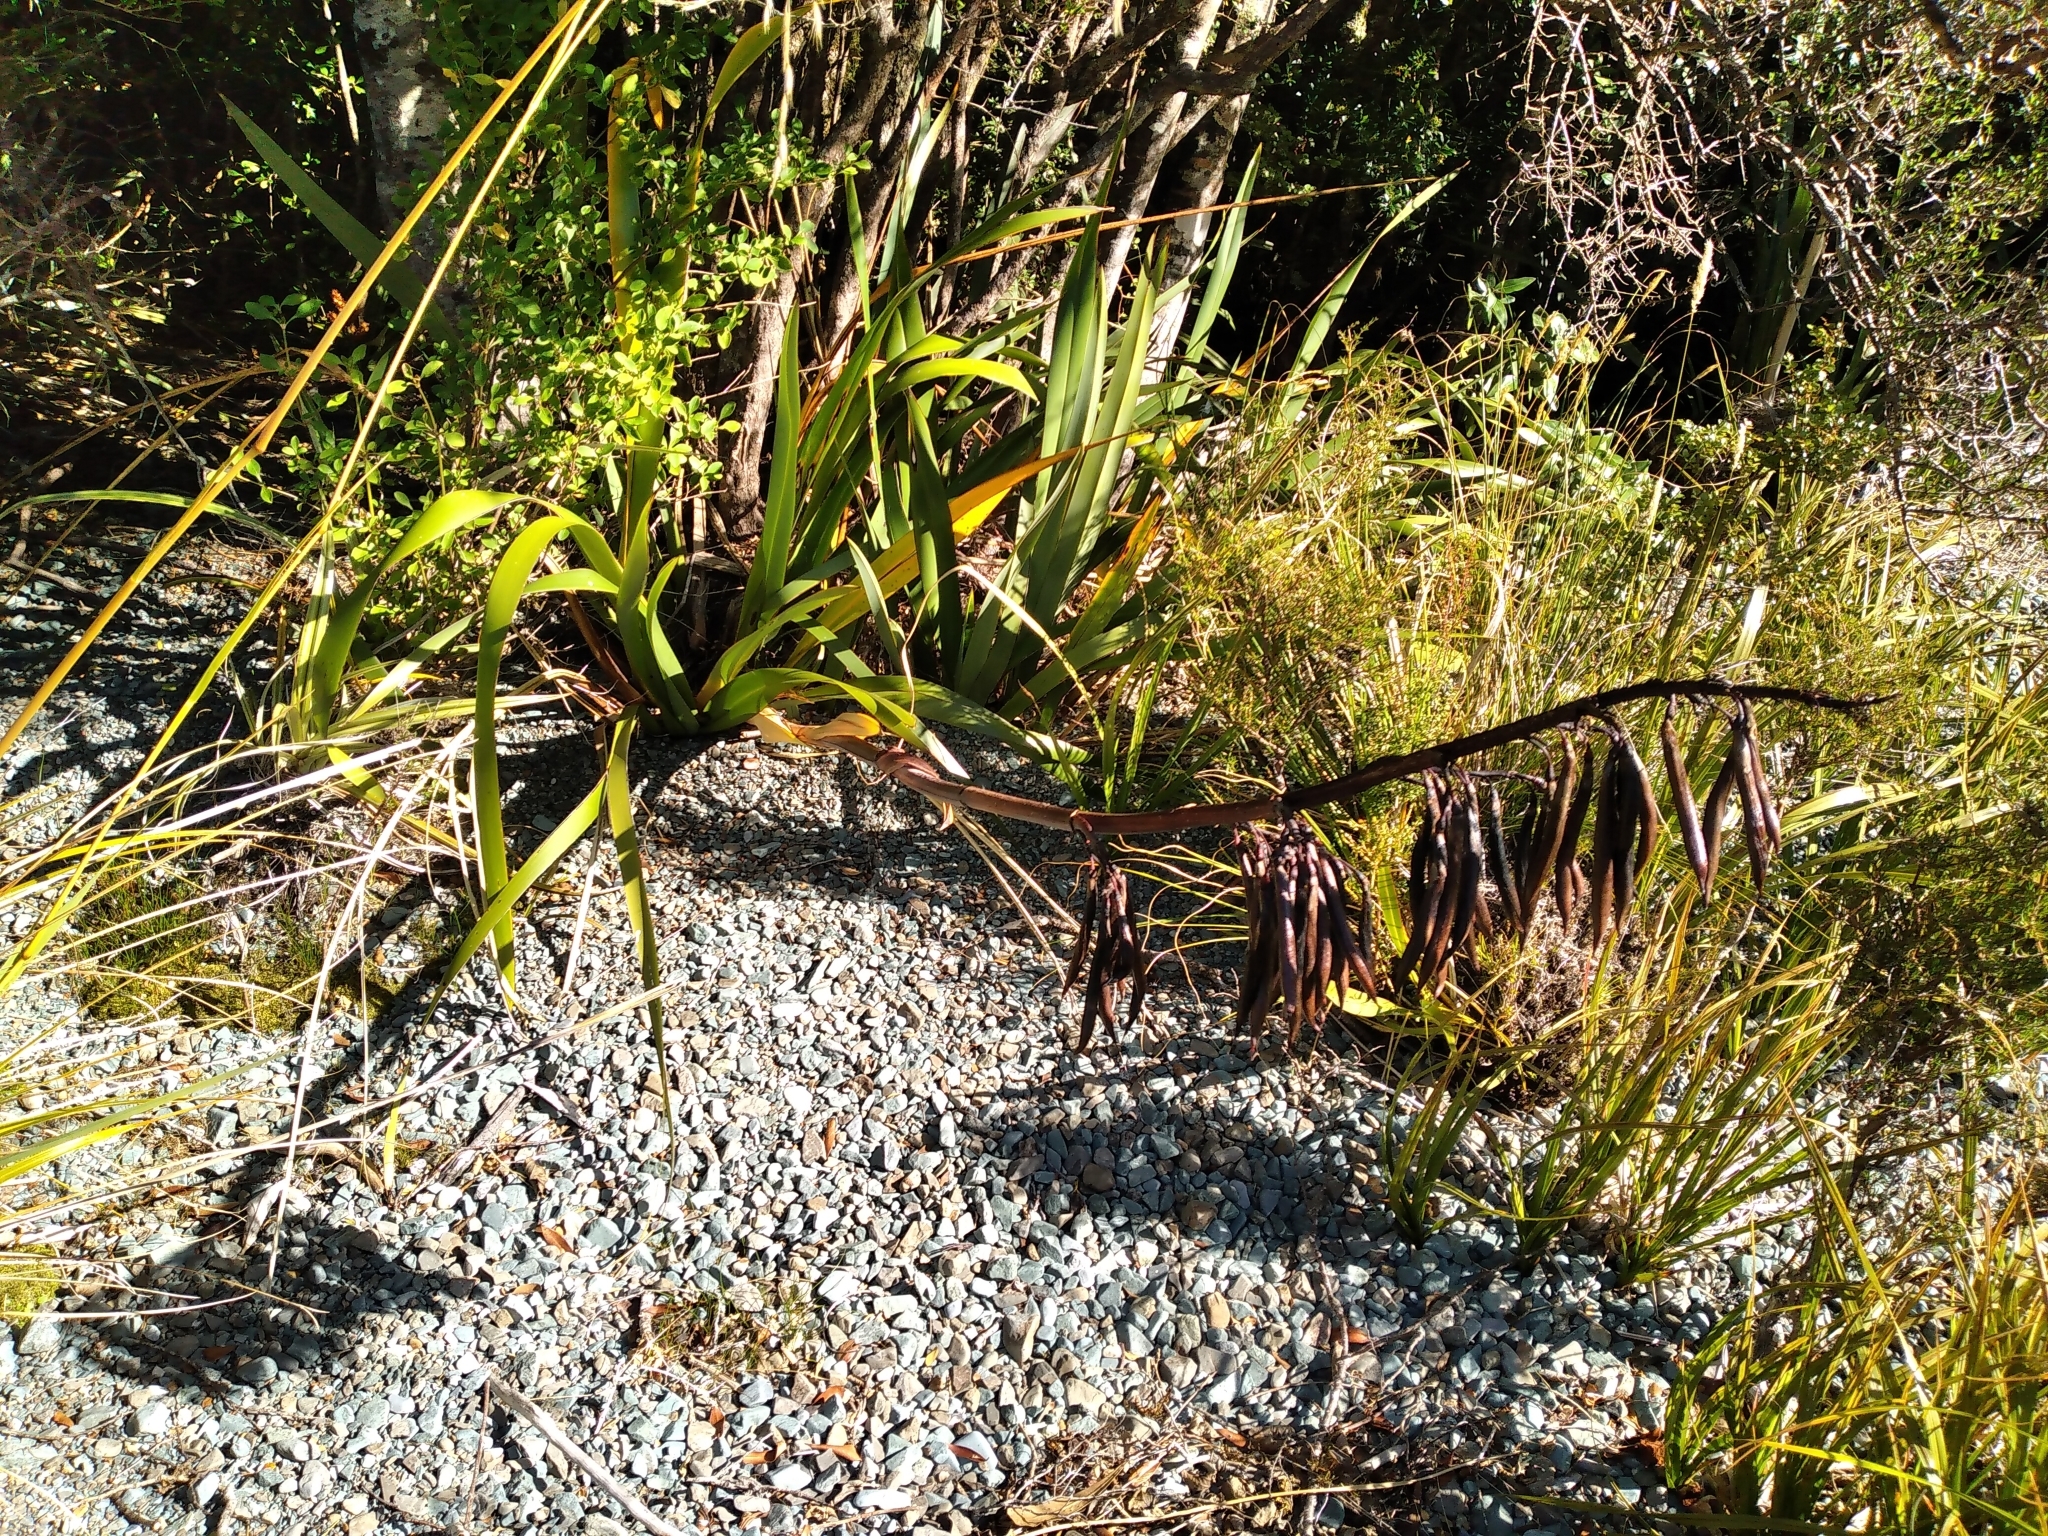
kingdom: Plantae
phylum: Tracheophyta
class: Liliopsida
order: Asparagales
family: Asphodelaceae
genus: Phormium
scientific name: Phormium colensoi
